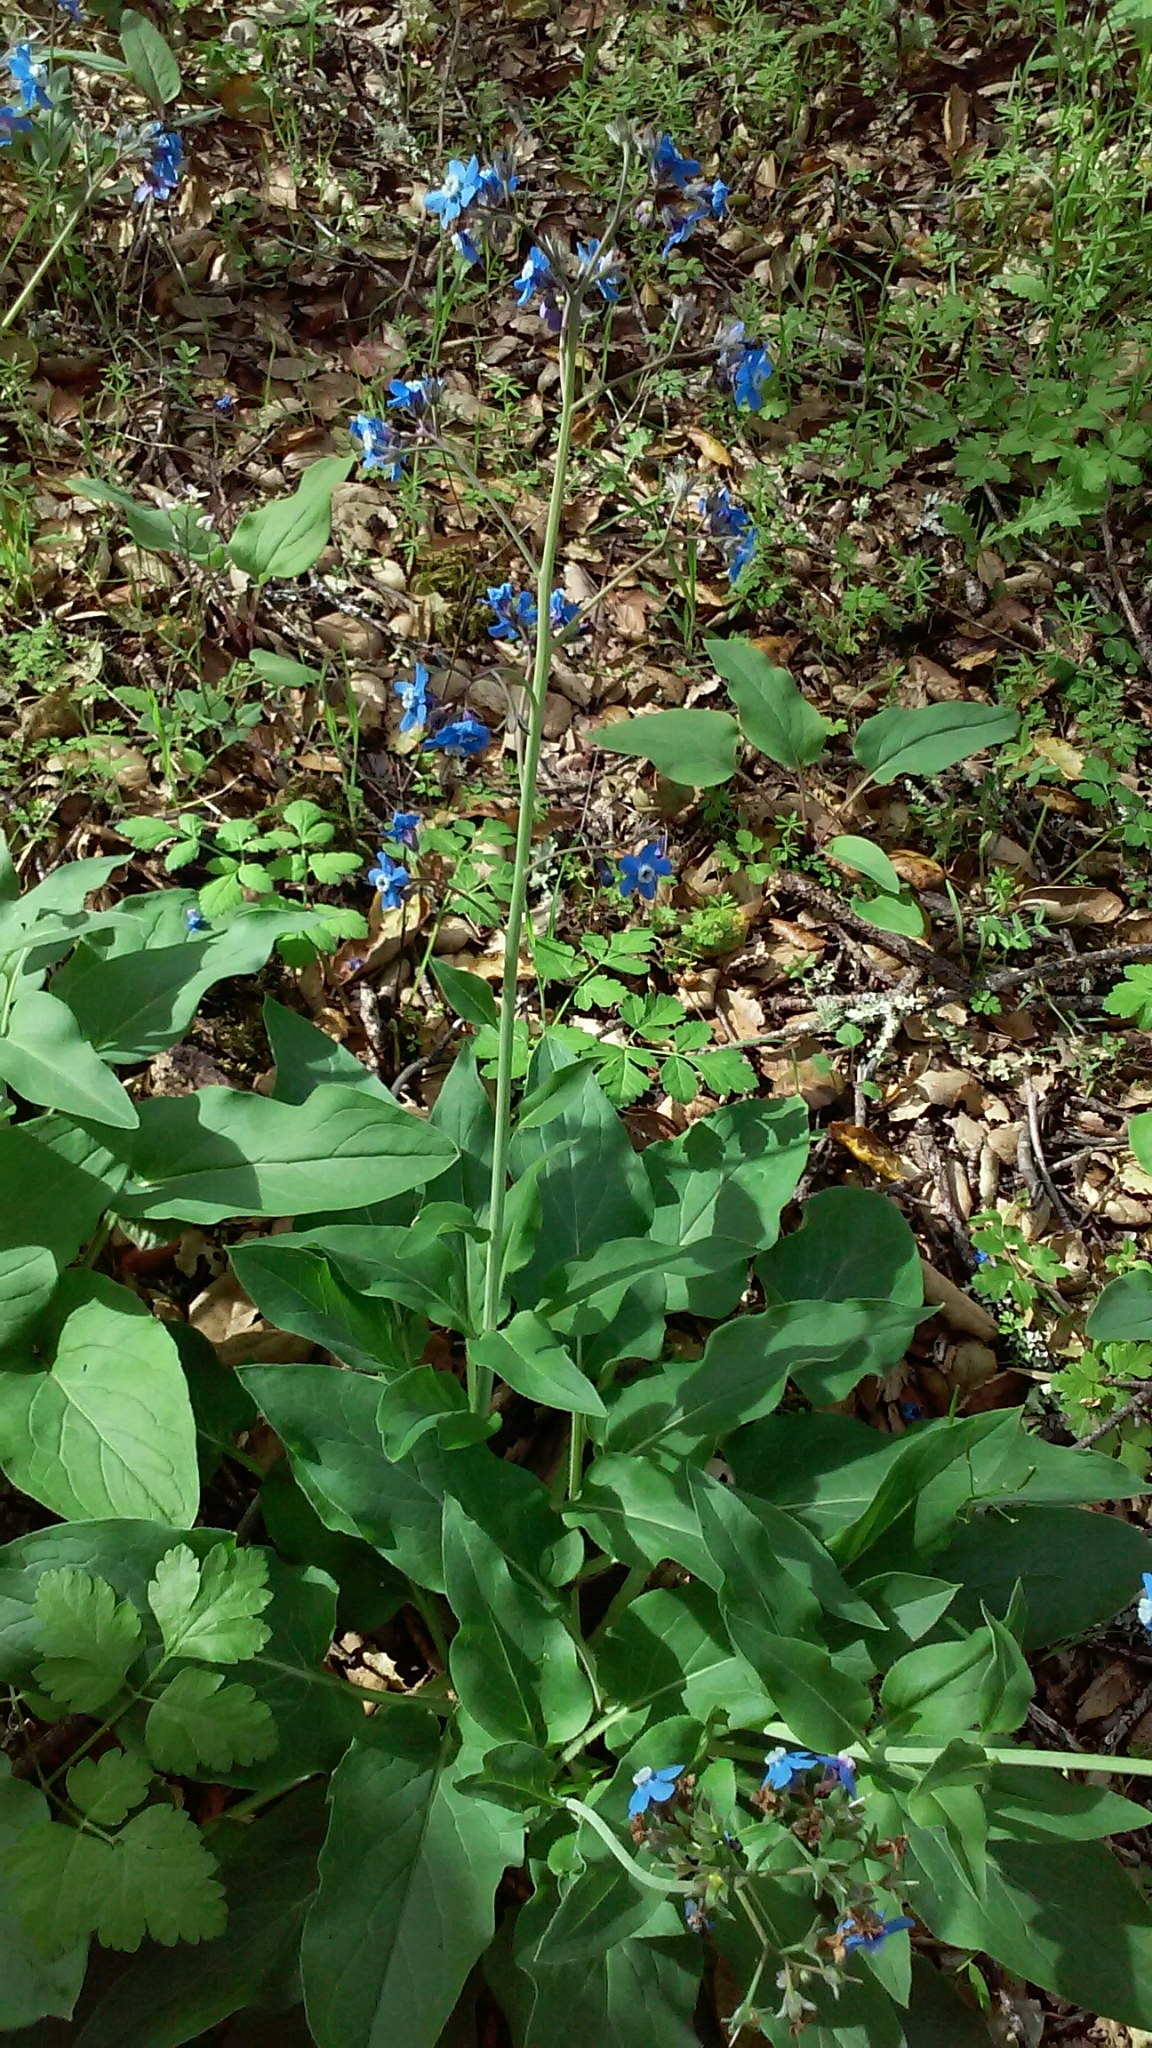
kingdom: Plantae
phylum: Tracheophyta
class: Magnoliopsida
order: Boraginales
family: Boraginaceae
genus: Adelinia
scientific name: Adelinia grande
